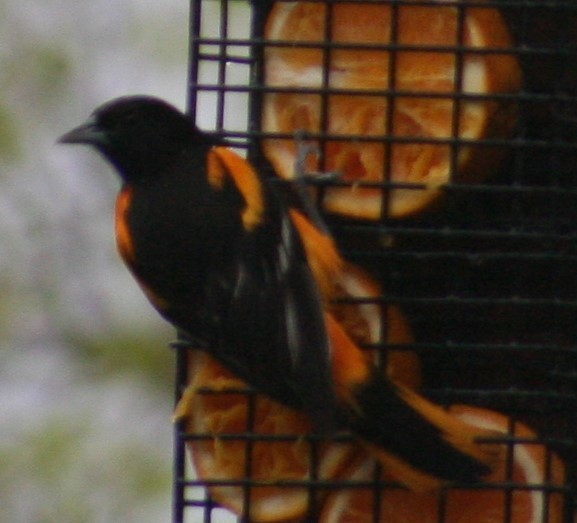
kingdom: Animalia
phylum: Chordata
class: Aves
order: Passeriformes
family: Icteridae
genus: Icterus
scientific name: Icterus galbula
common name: Baltimore oriole
